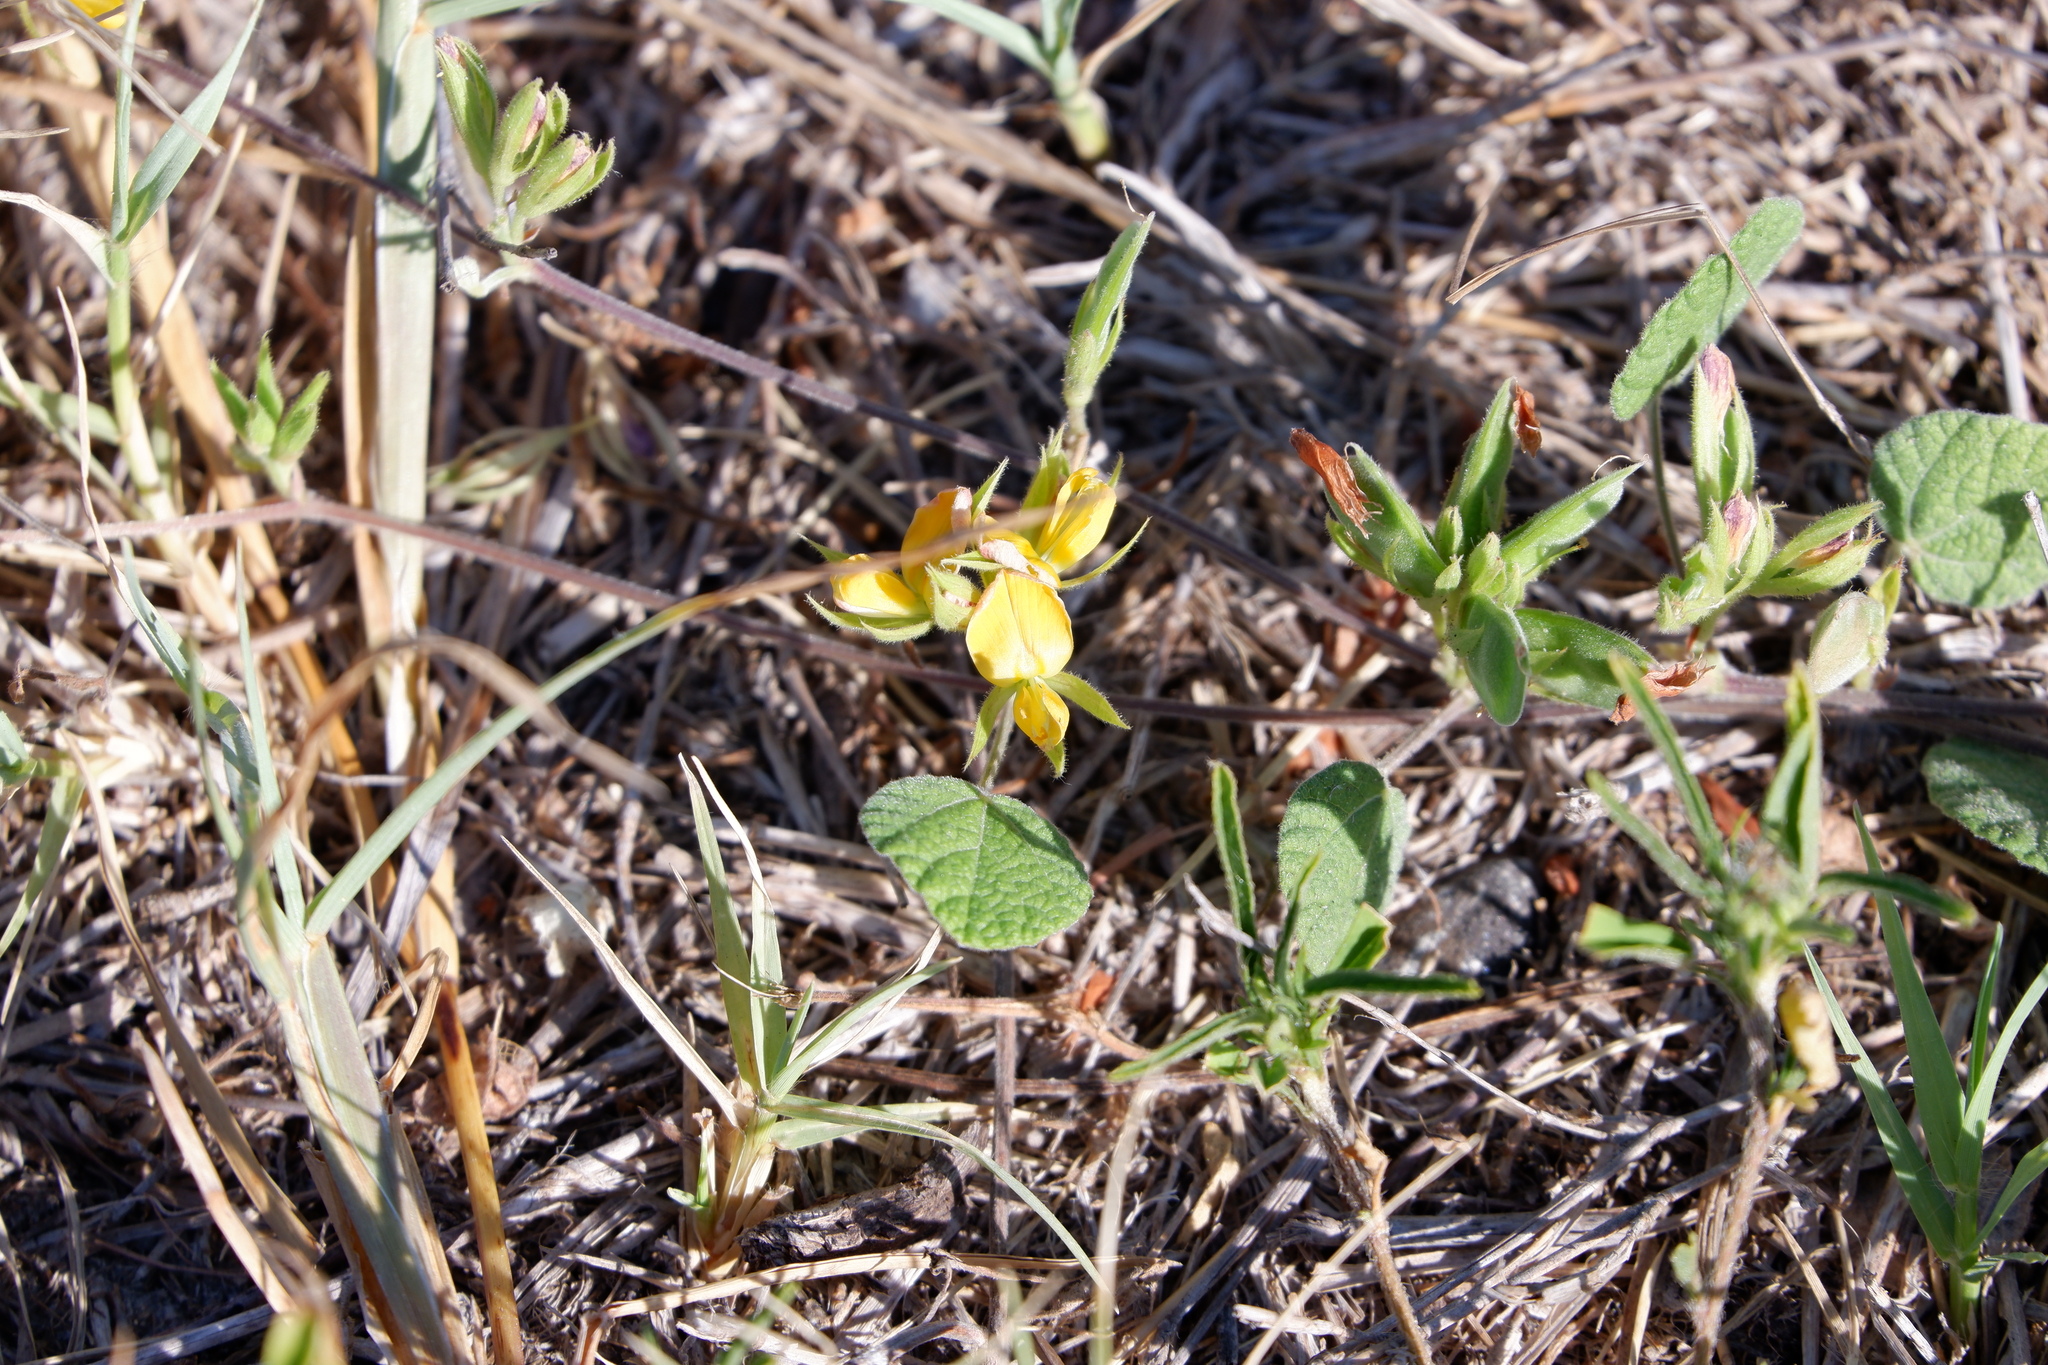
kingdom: Plantae
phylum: Tracheophyta
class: Magnoliopsida
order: Fabales
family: Fabaceae
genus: Rhynchosia
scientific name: Rhynchosia americana
